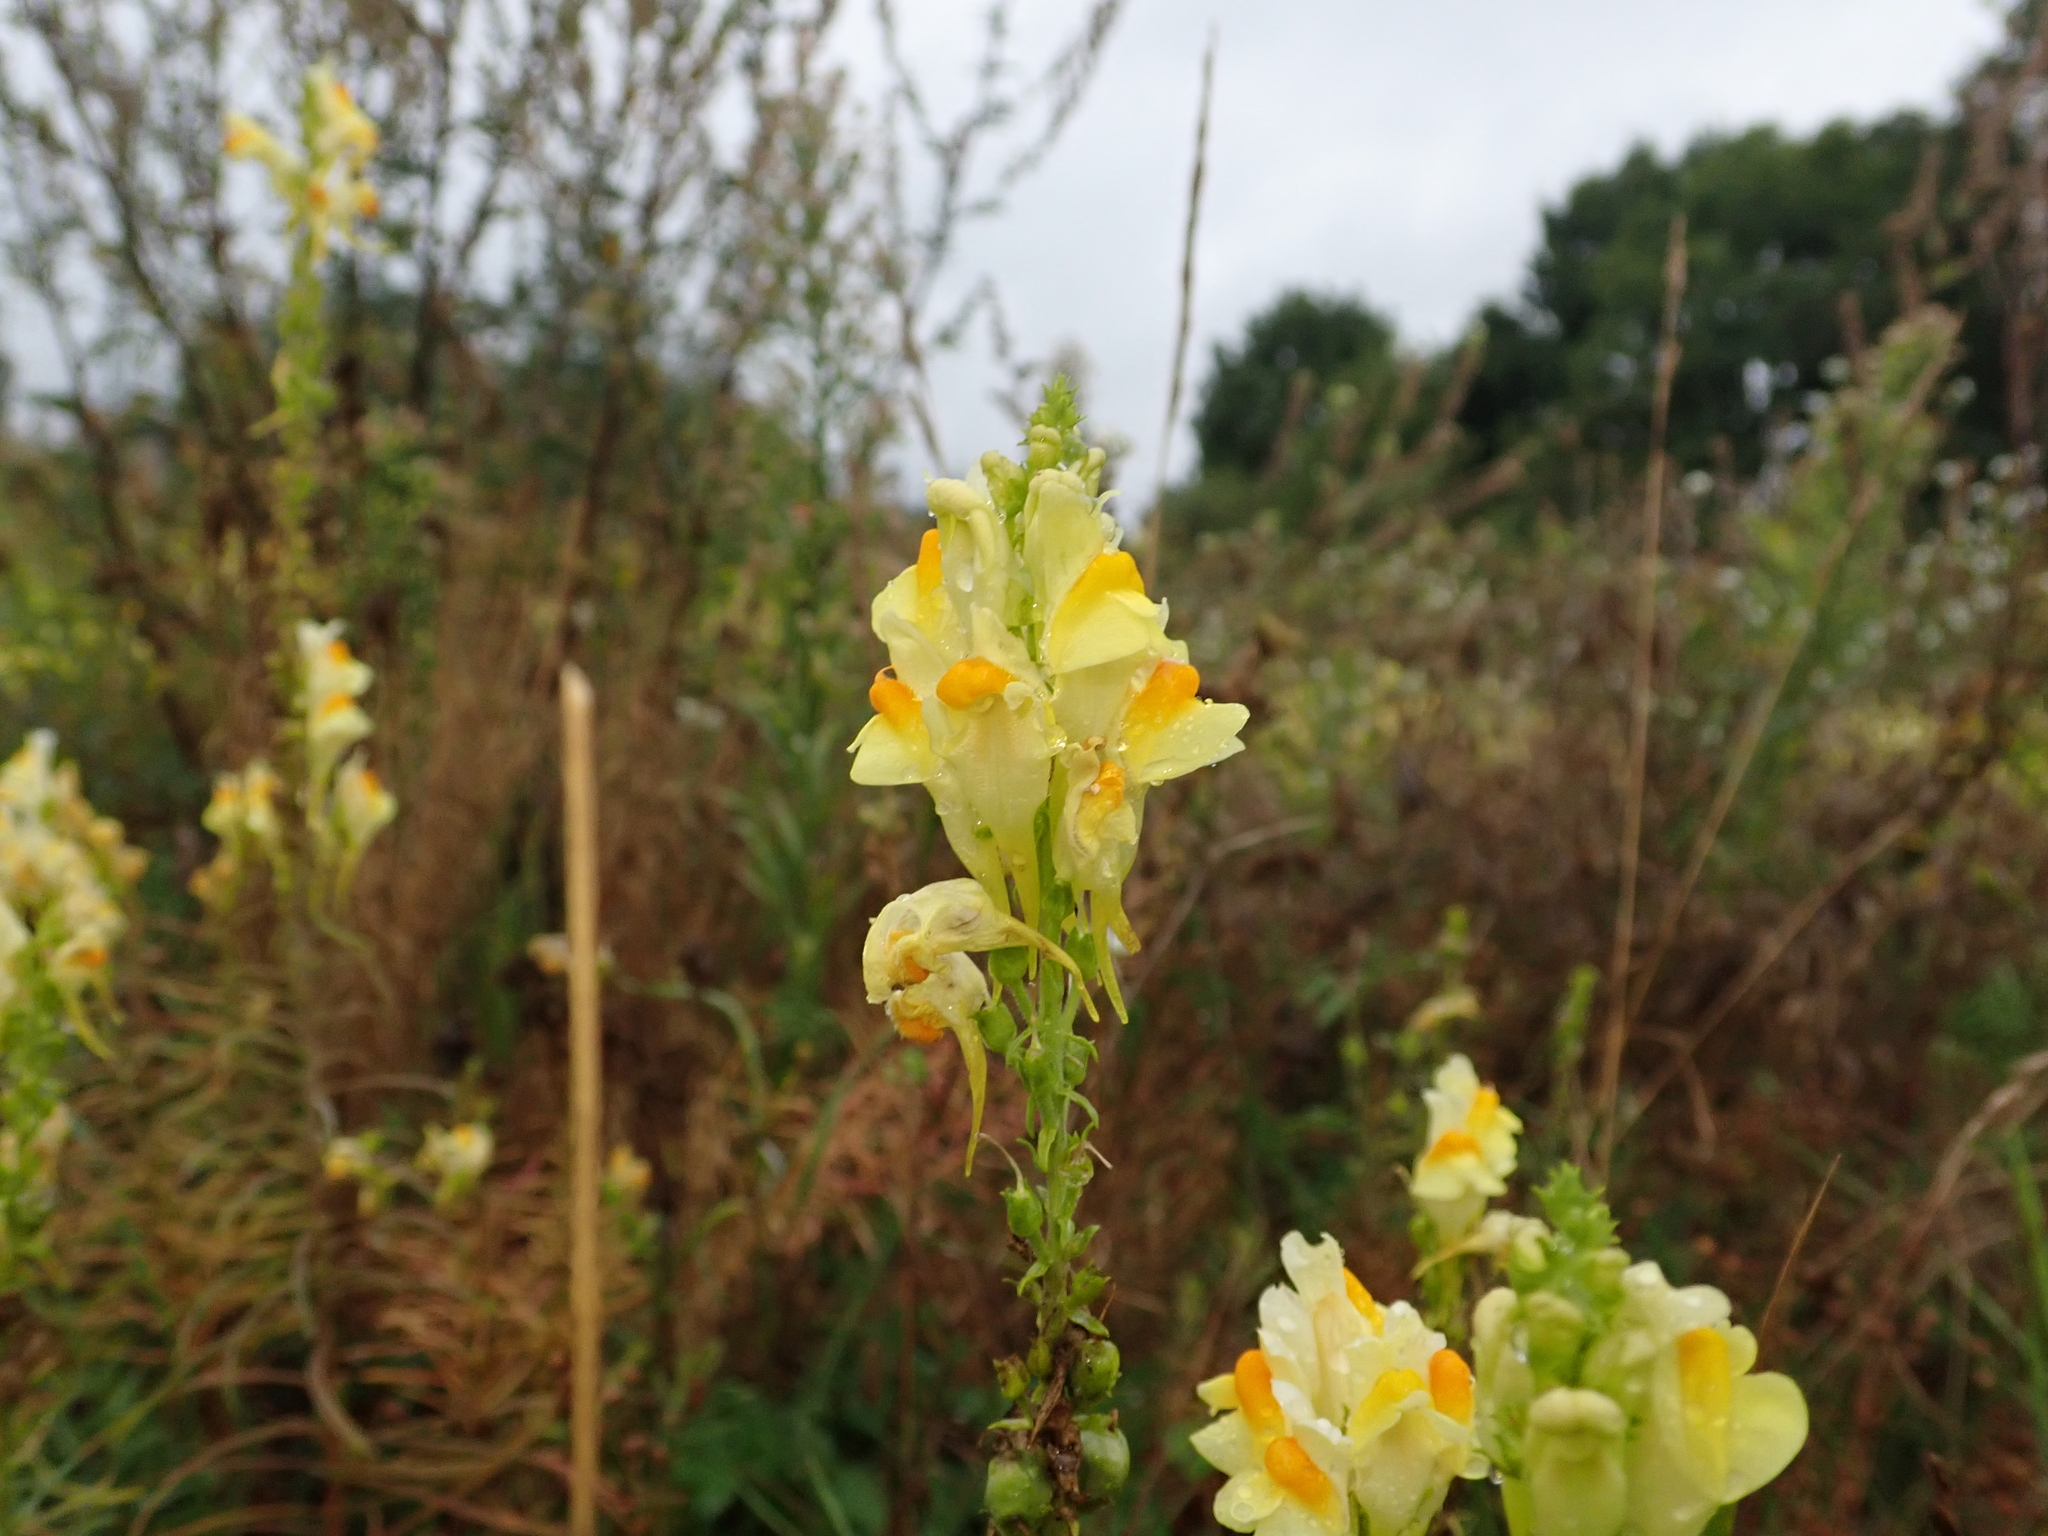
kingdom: Plantae
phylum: Tracheophyta
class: Magnoliopsida
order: Lamiales
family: Plantaginaceae
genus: Linaria
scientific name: Linaria vulgaris
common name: Butter and eggs
